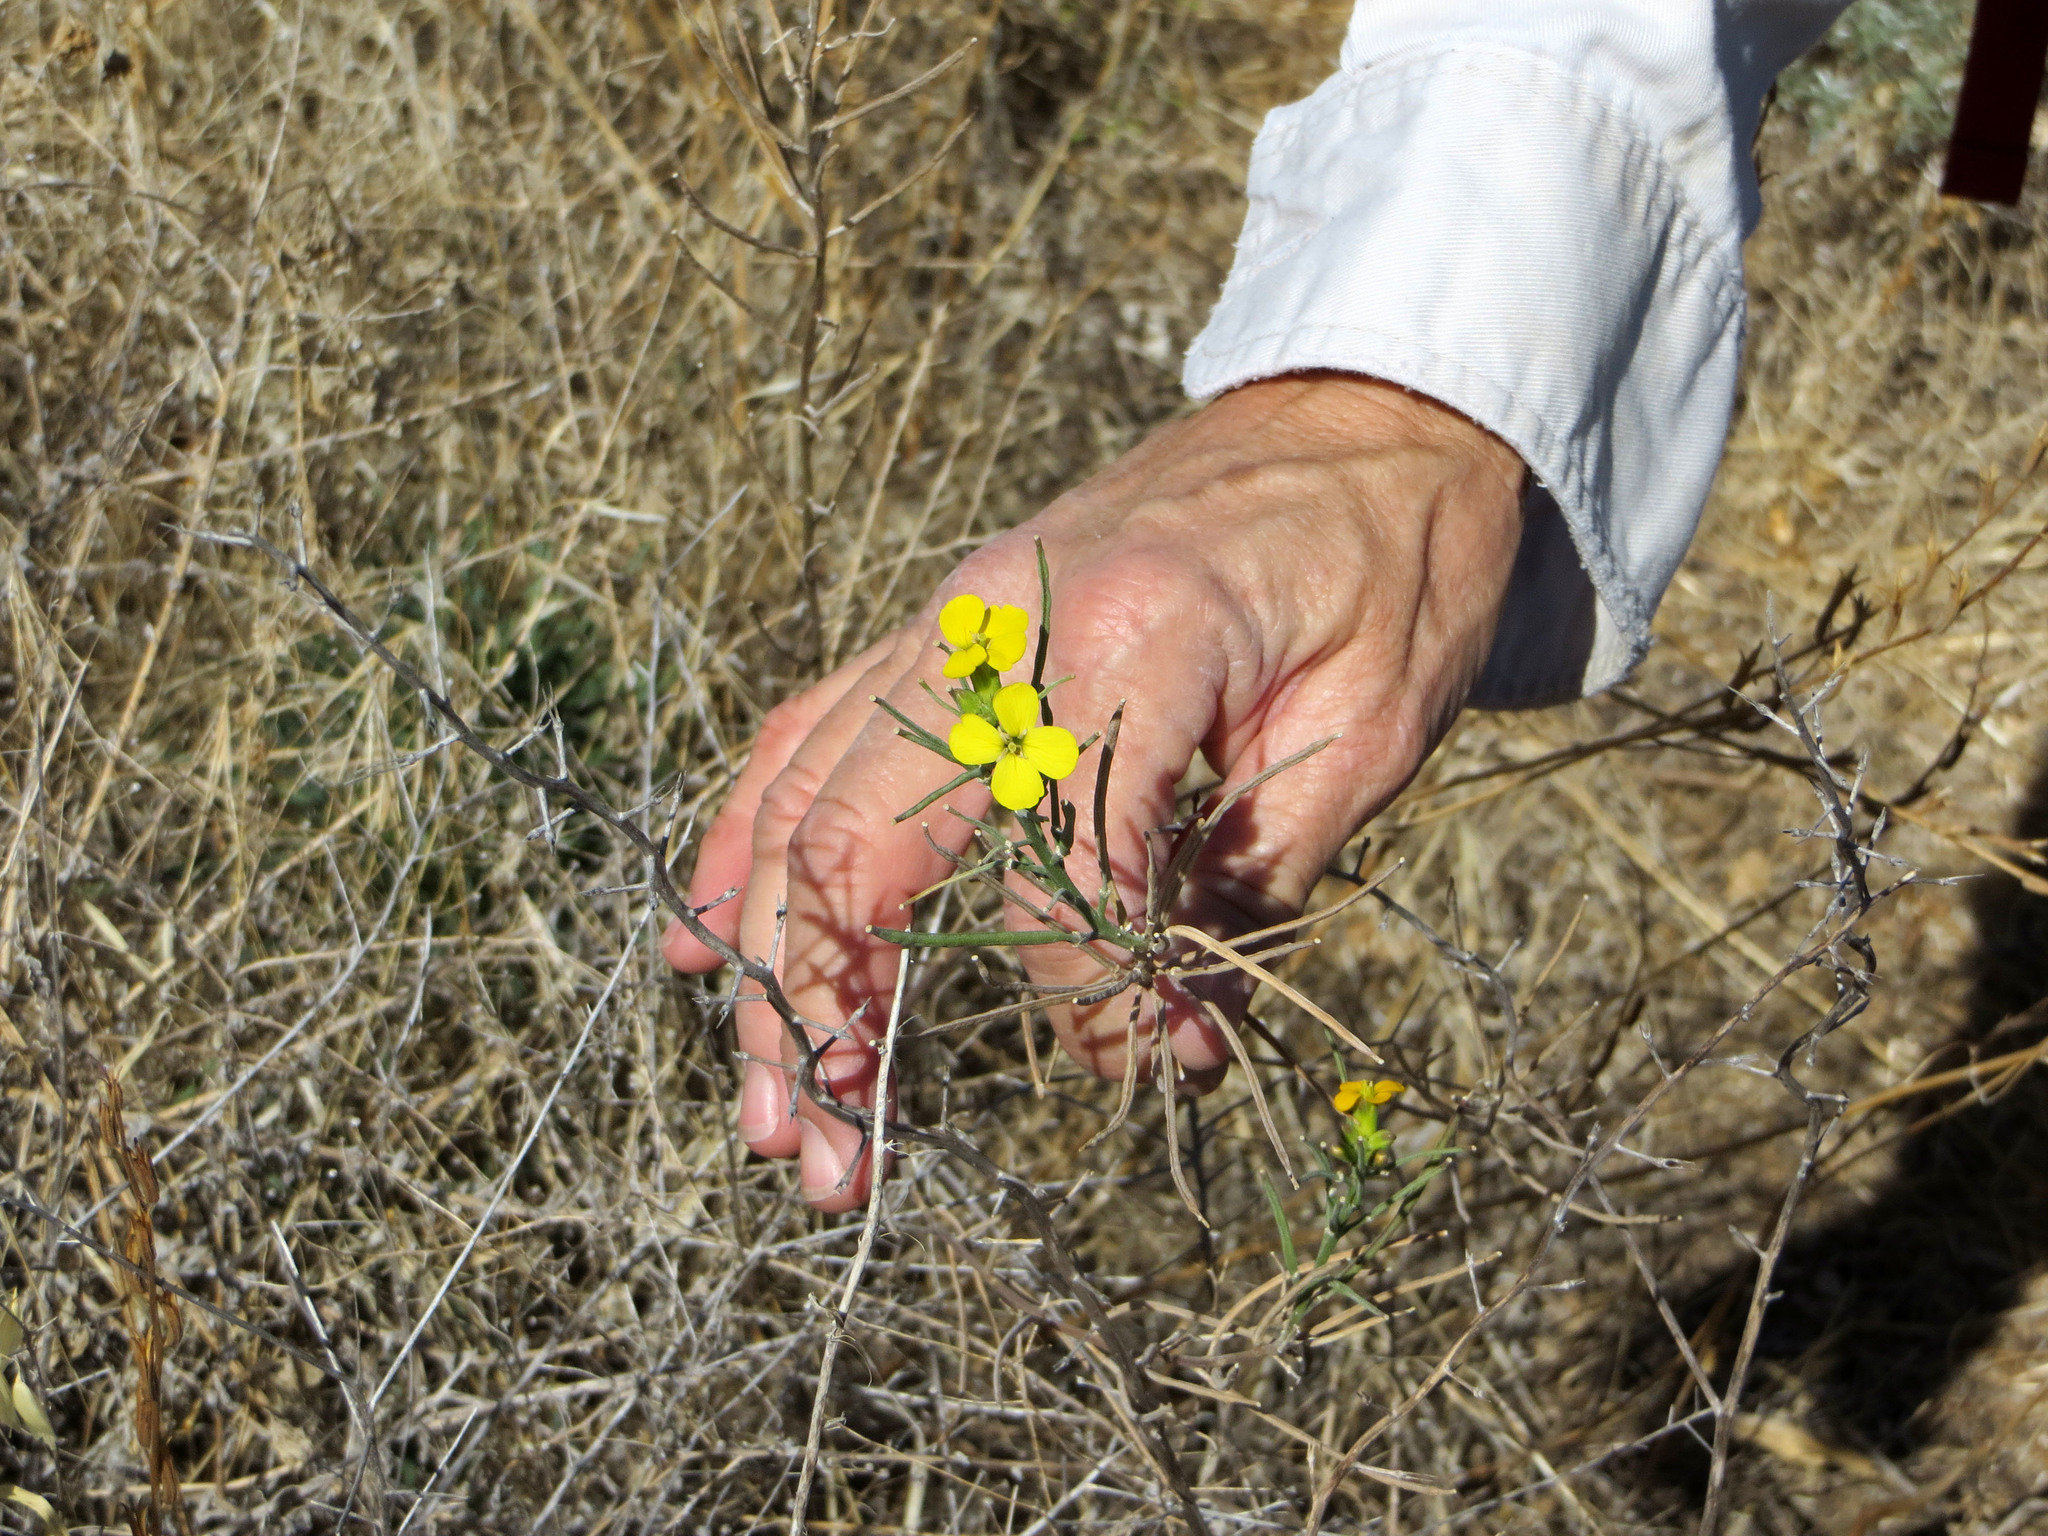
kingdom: Plantae
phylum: Tracheophyta
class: Magnoliopsida
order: Brassicales
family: Brassicaceae
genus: Erysimum
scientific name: Erysimum capitatum
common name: Western wallflower
